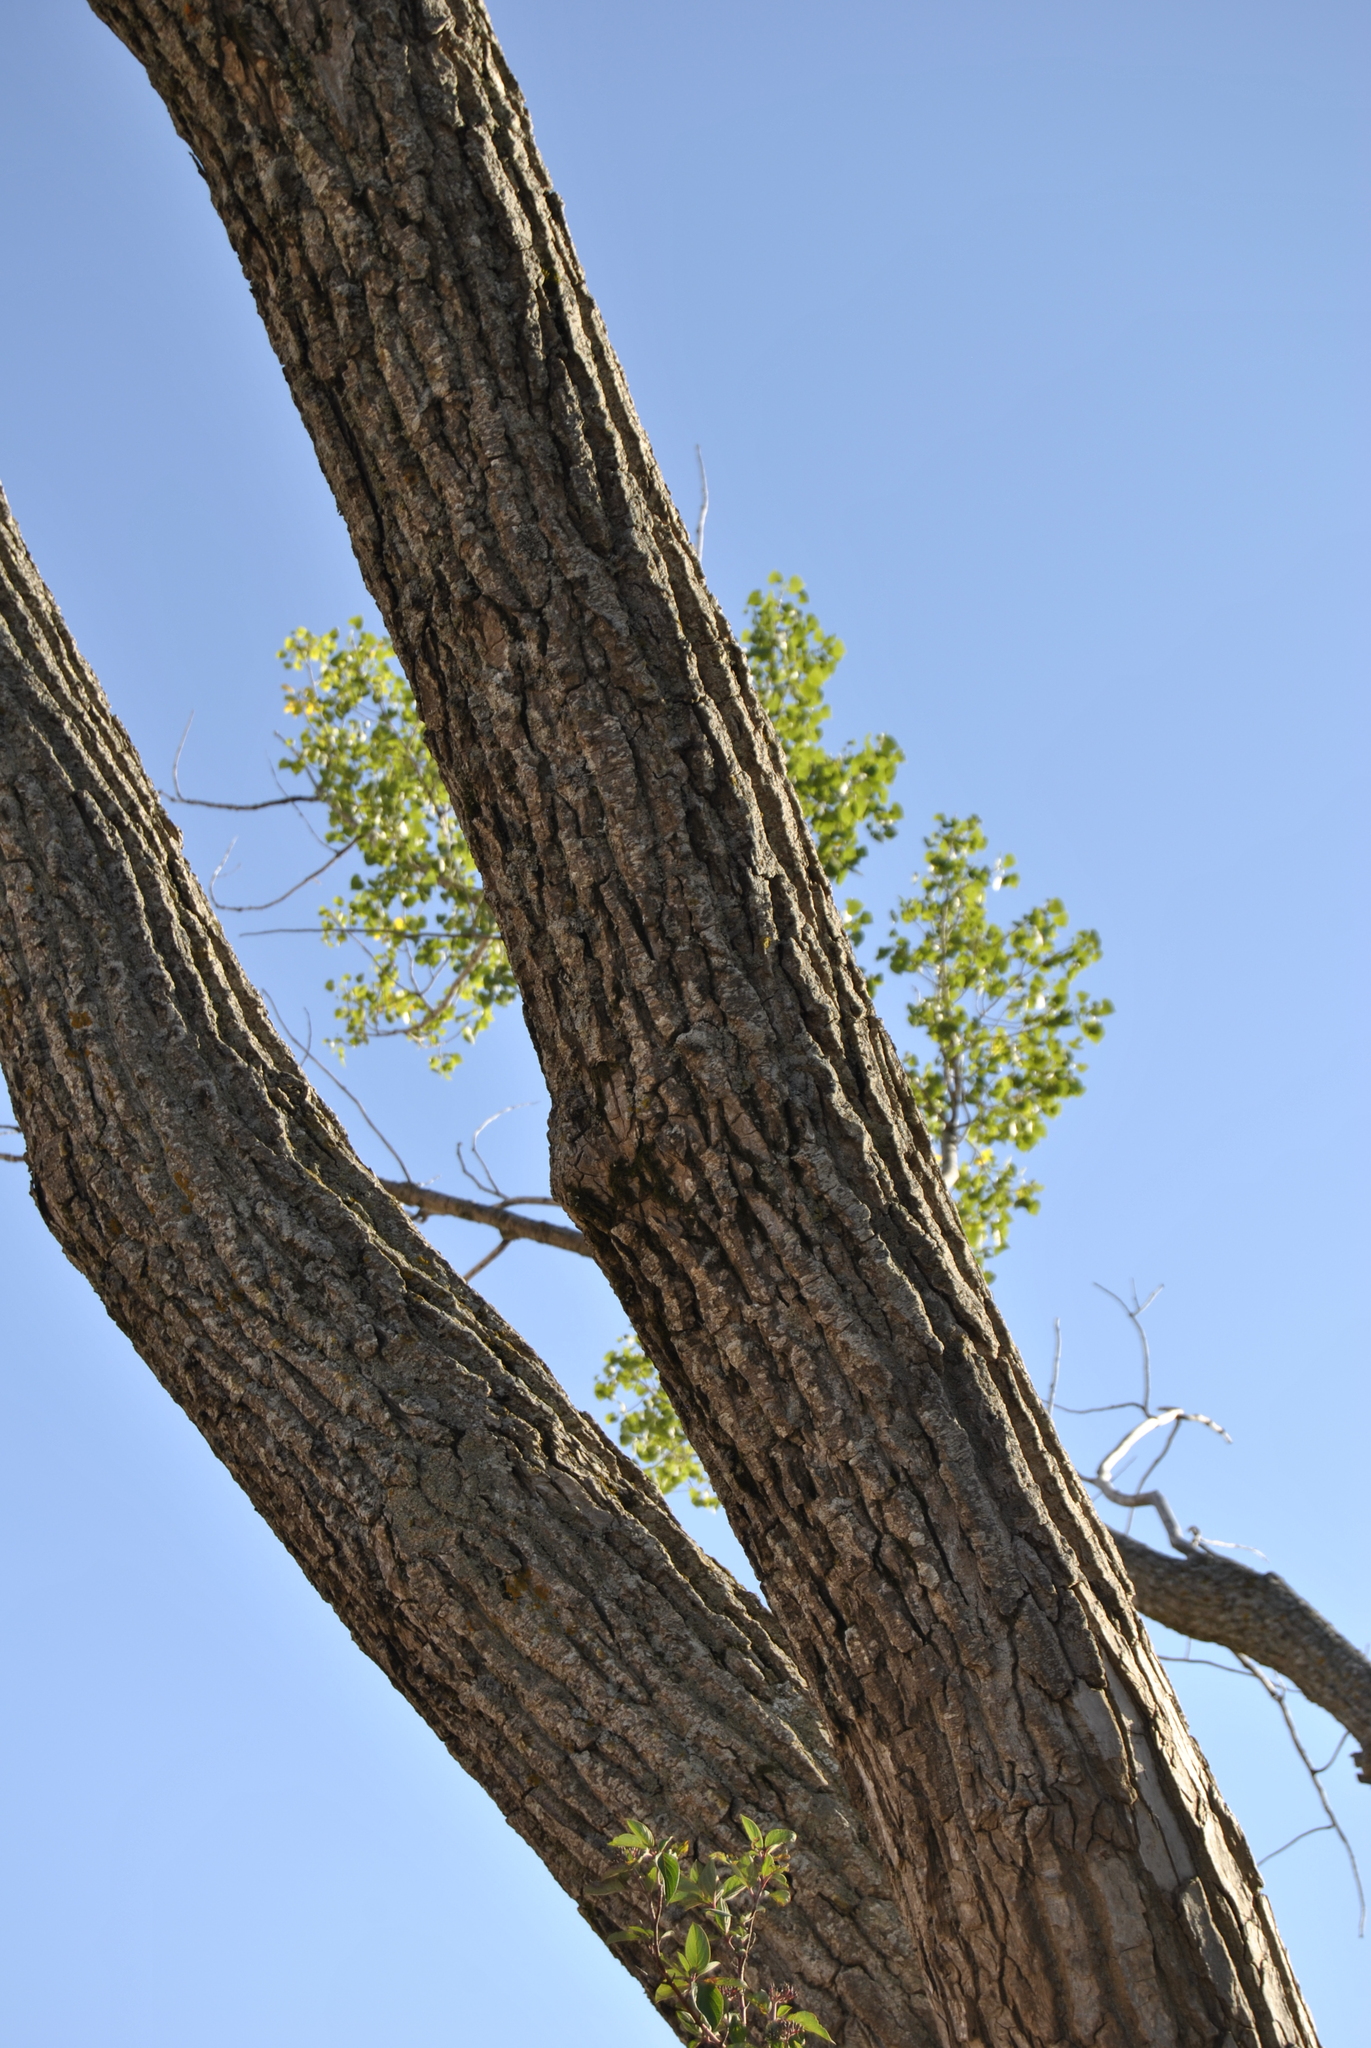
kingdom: Plantae
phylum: Tracheophyta
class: Magnoliopsida
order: Malpighiales
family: Salicaceae
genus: Populus
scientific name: Populus deltoides
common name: Eastern cottonwood
